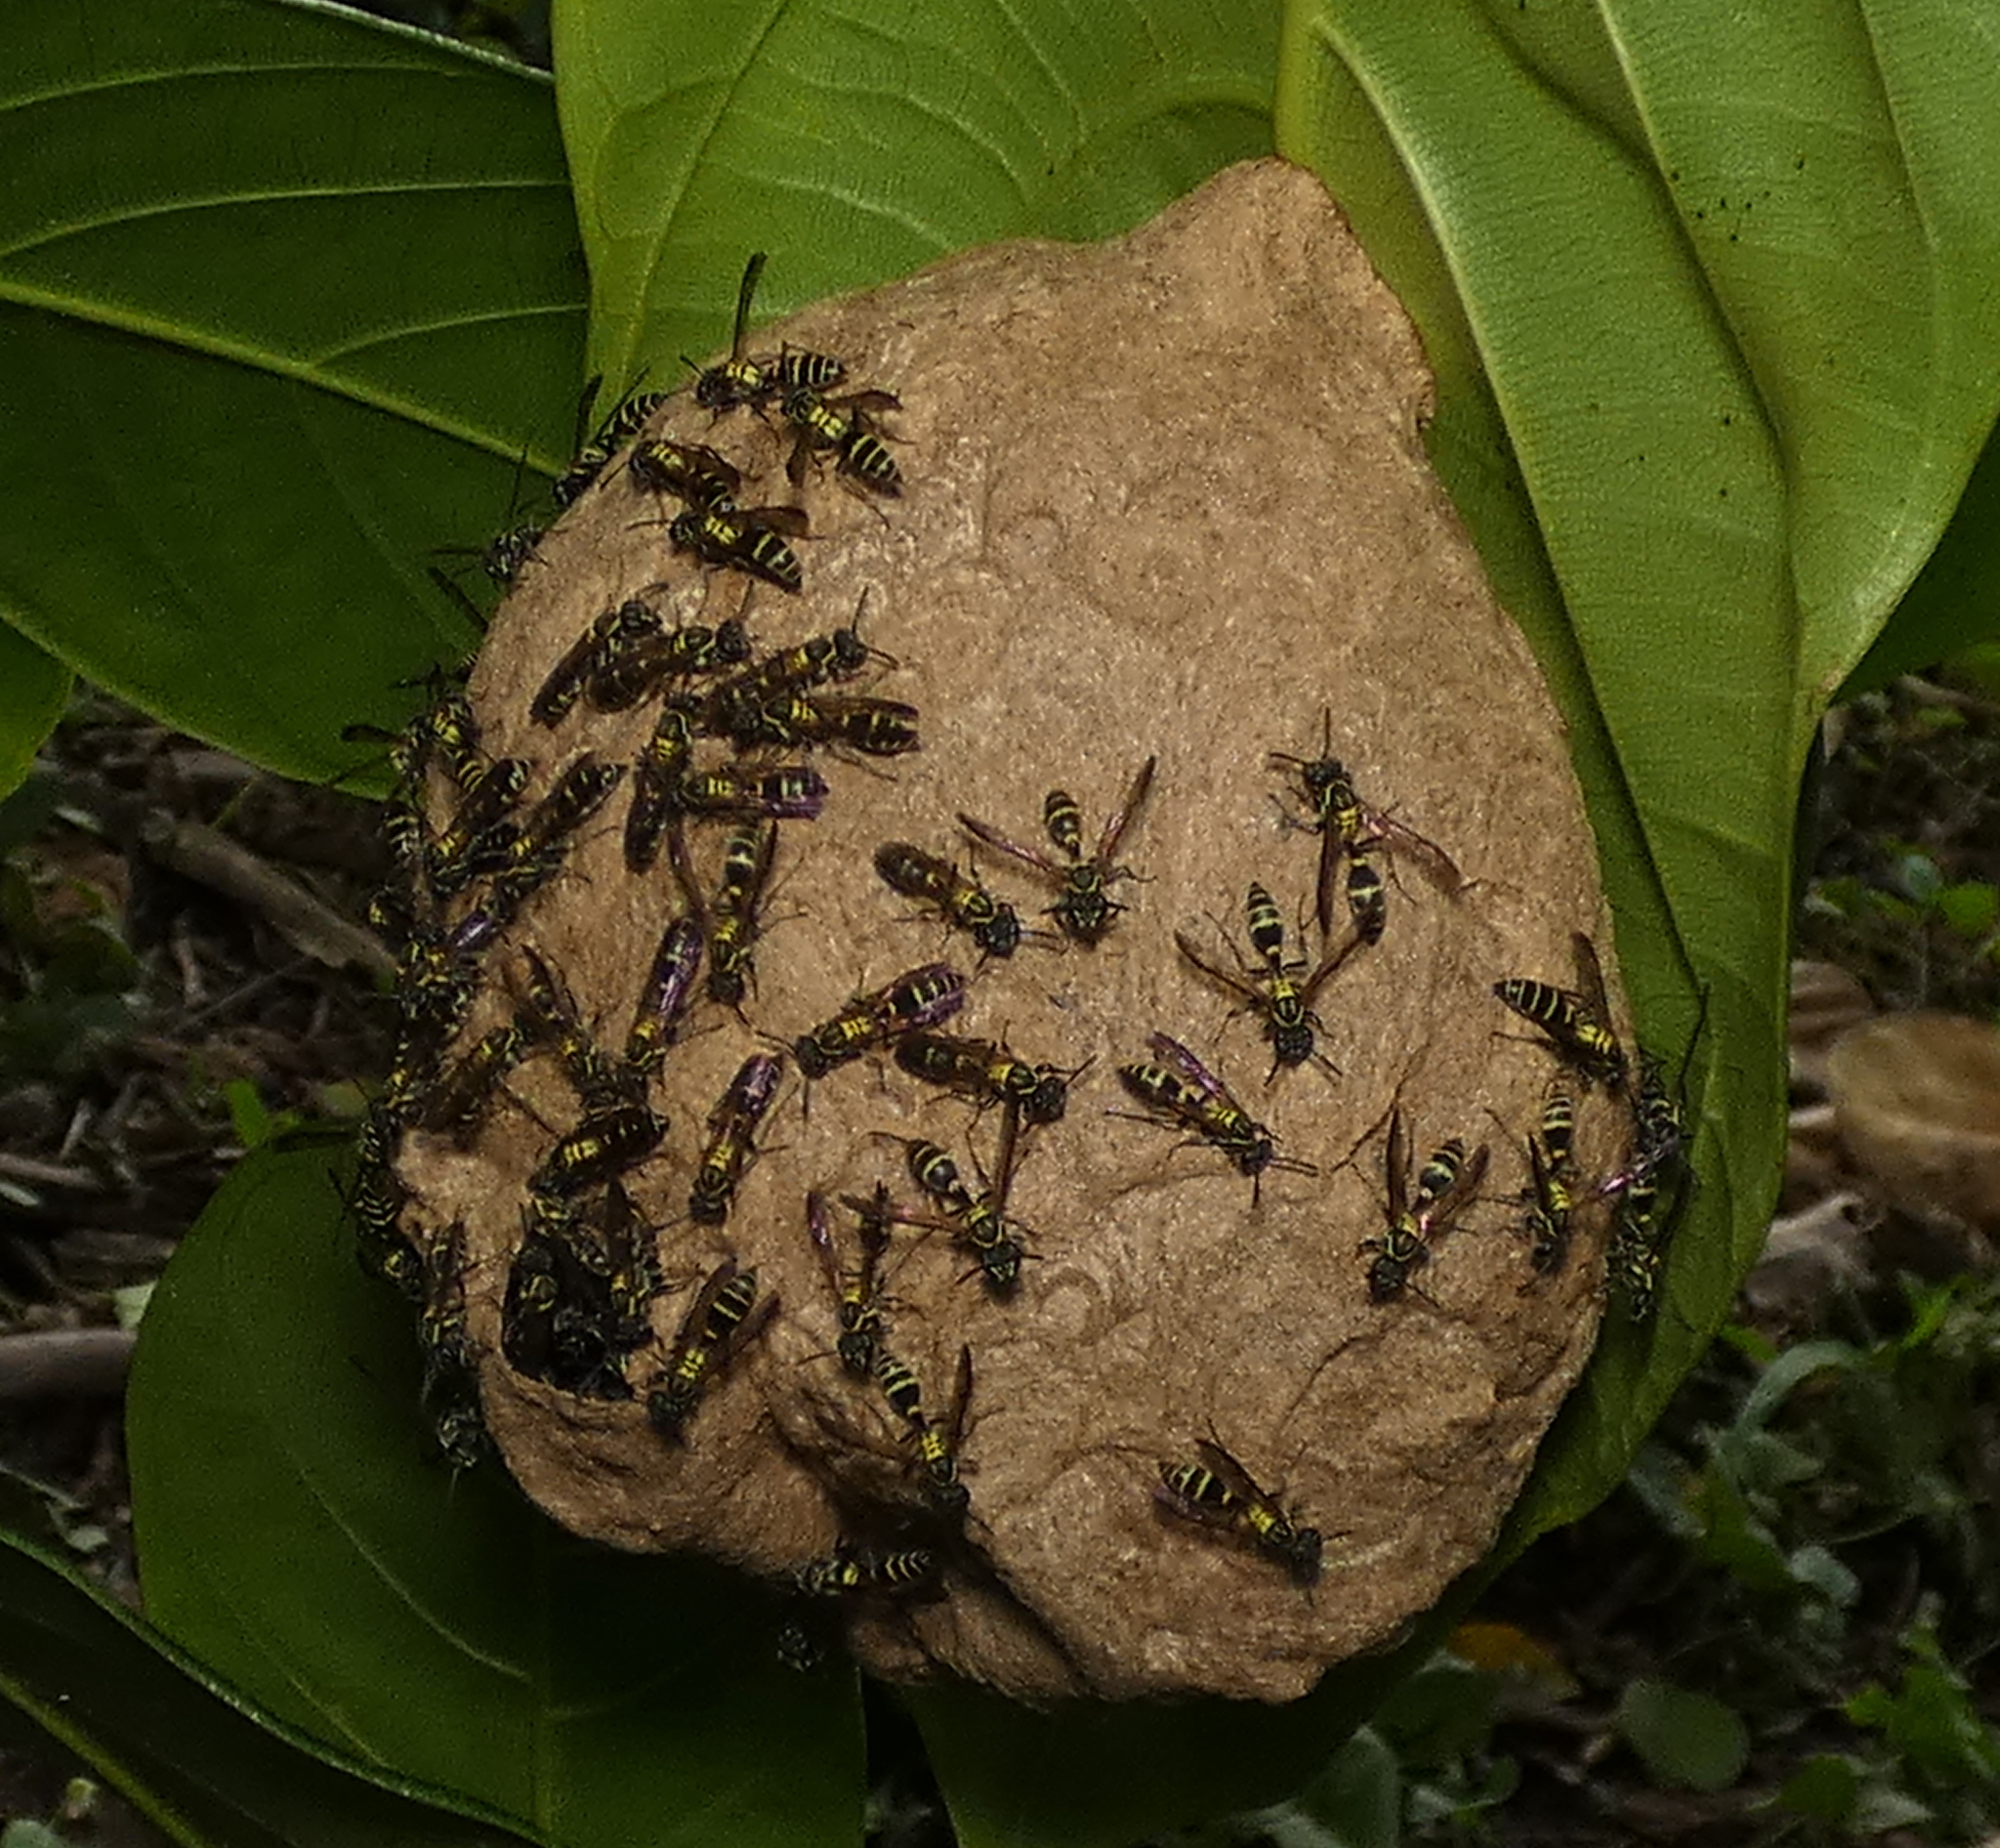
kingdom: Animalia
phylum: Arthropoda
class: Insecta
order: Hymenoptera
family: Eumenidae
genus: Polybia
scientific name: Polybia occidentalis
